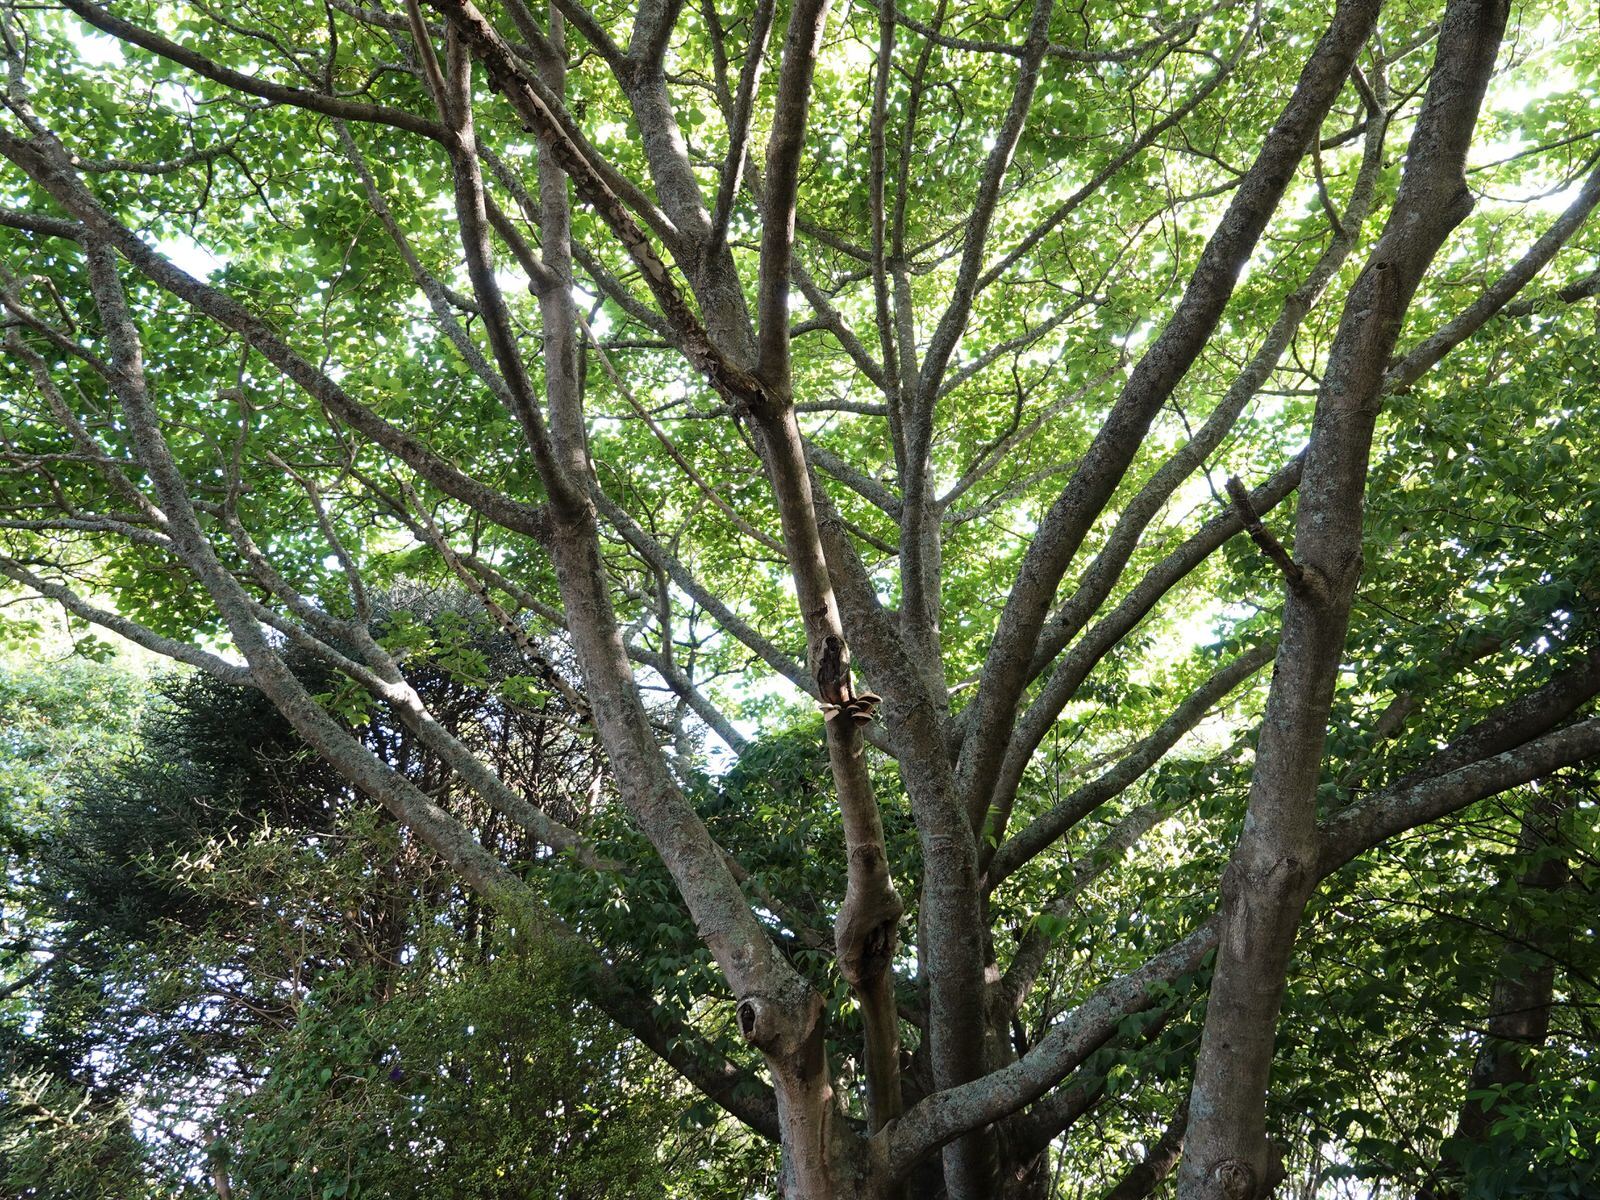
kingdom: Fungi
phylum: Basidiomycota
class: Agaricomycetes
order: Agaricales
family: Tubariaceae
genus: Cyclocybe
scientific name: Cyclocybe parasitica
